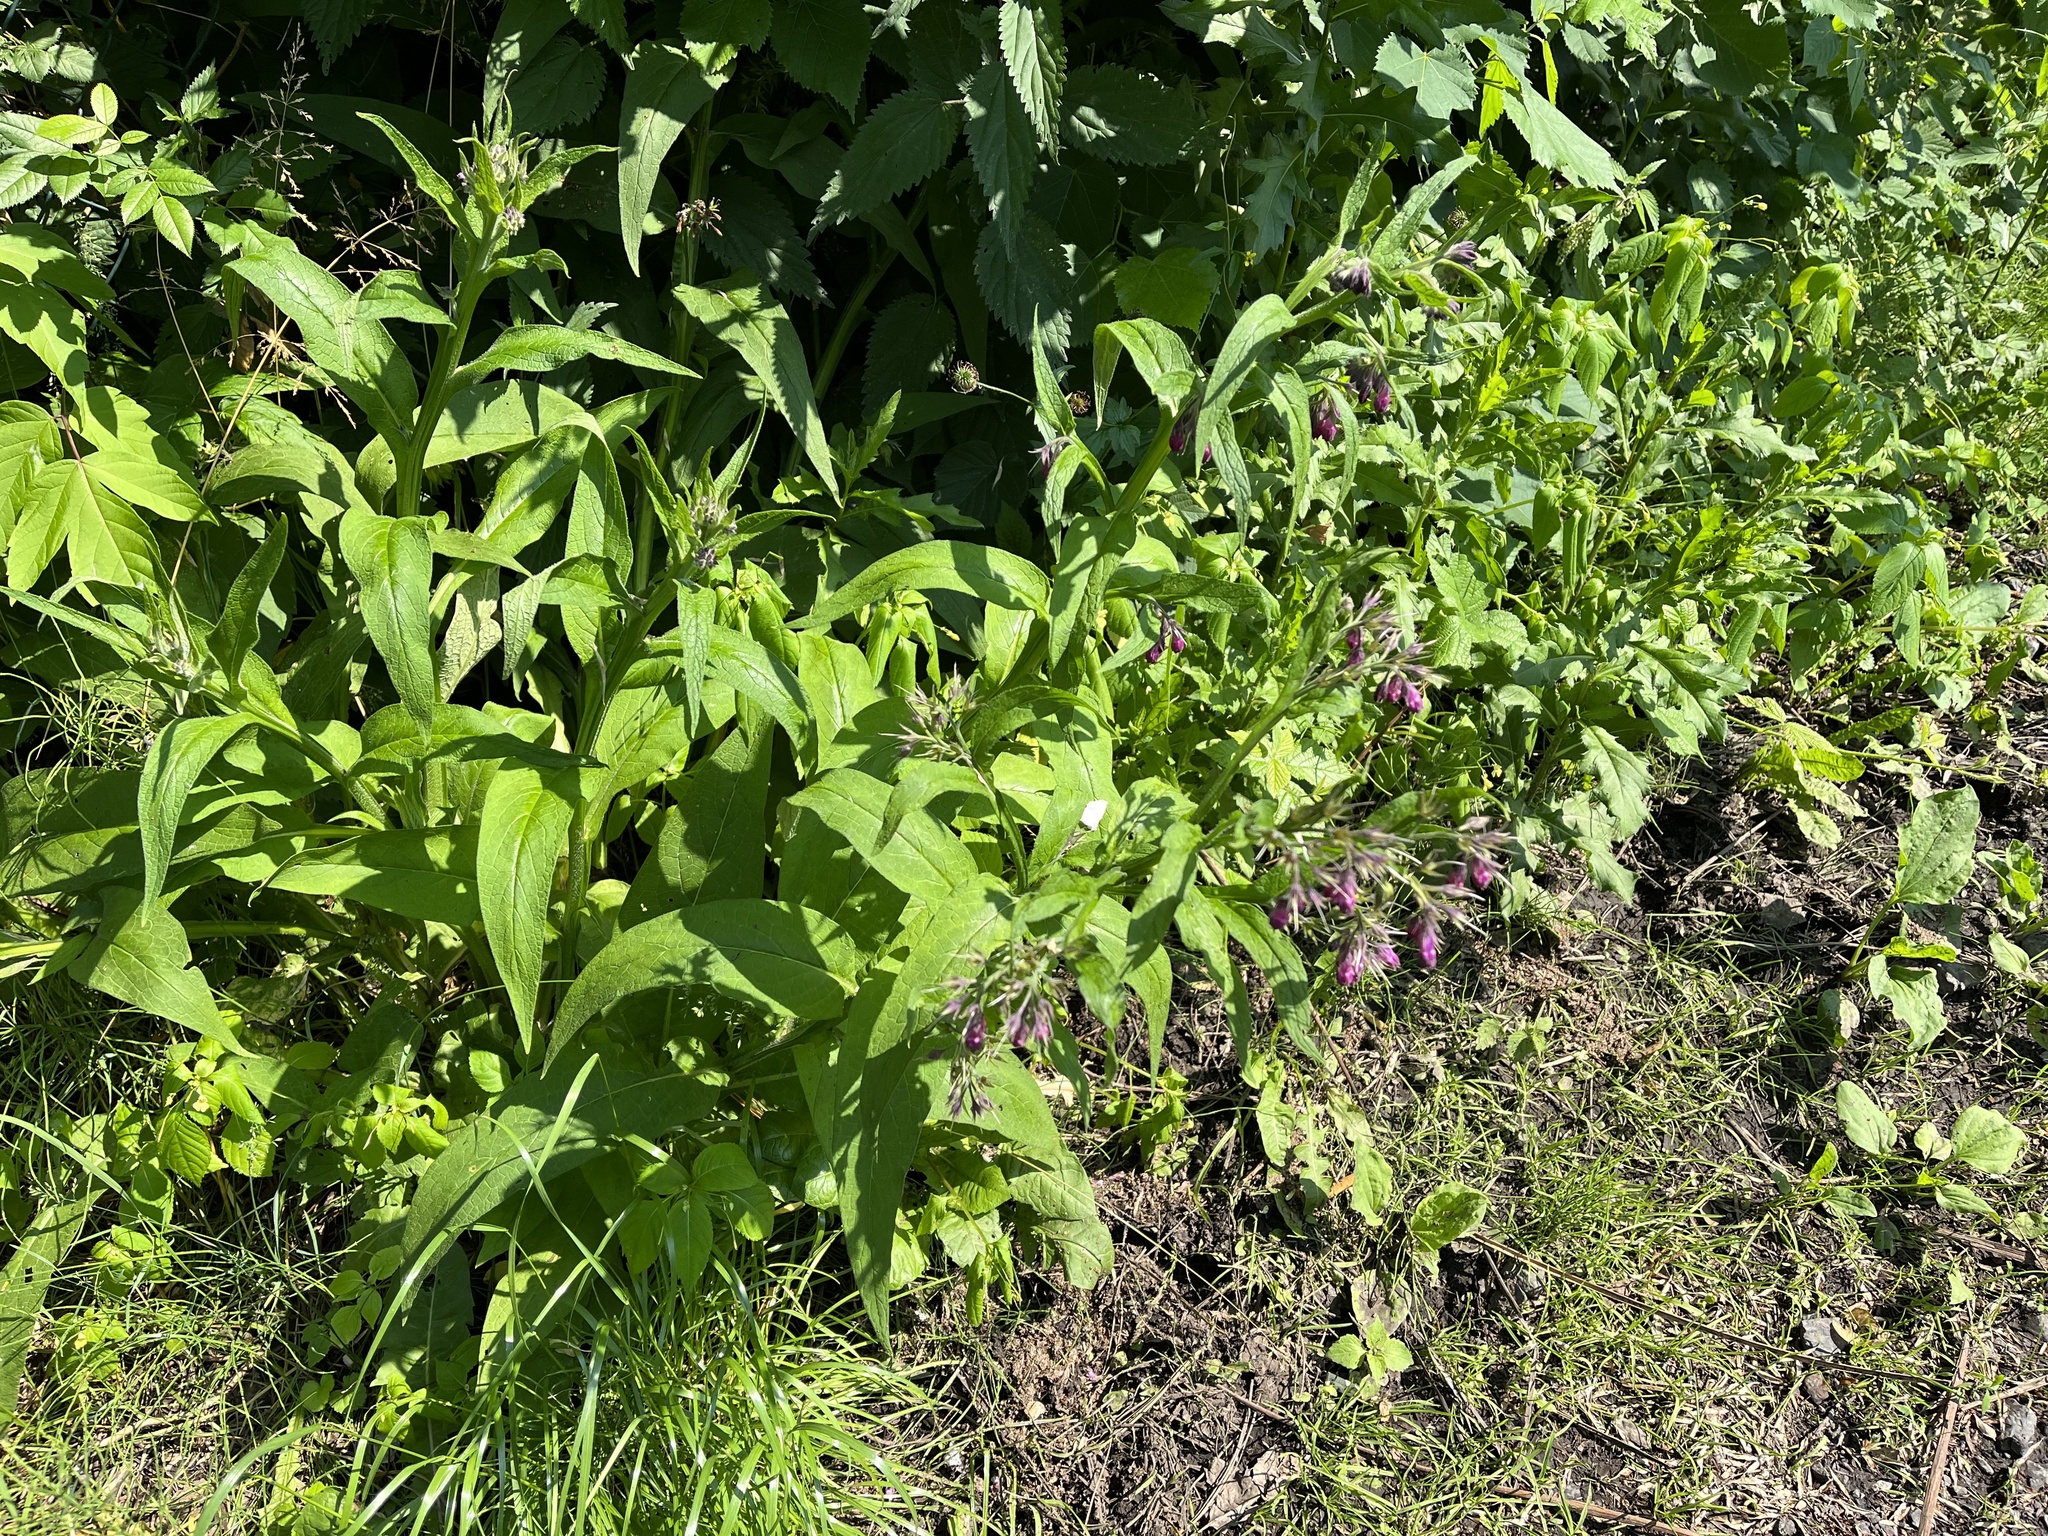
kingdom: Plantae
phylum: Tracheophyta
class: Magnoliopsida
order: Boraginales
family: Boraginaceae
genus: Symphytum
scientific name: Symphytum officinale
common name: Common comfrey
